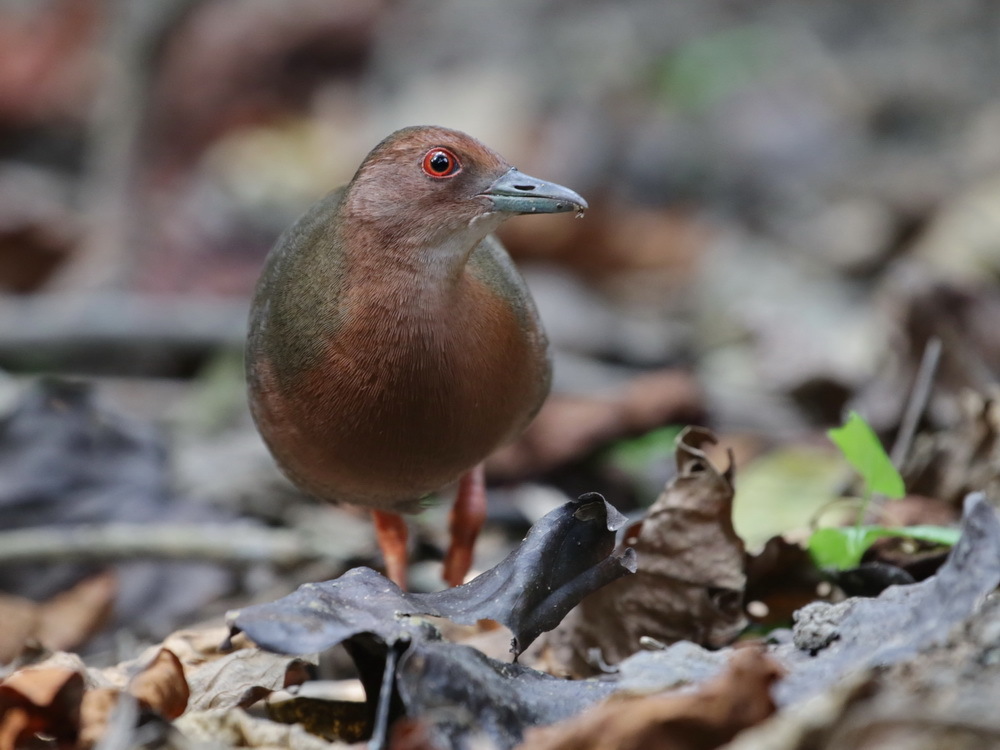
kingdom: Animalia
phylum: Chordata
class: Aves
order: Gruiformes
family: Rallidae
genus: Porzana
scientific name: Porzana fusca
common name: Ruddy-breasted crake
